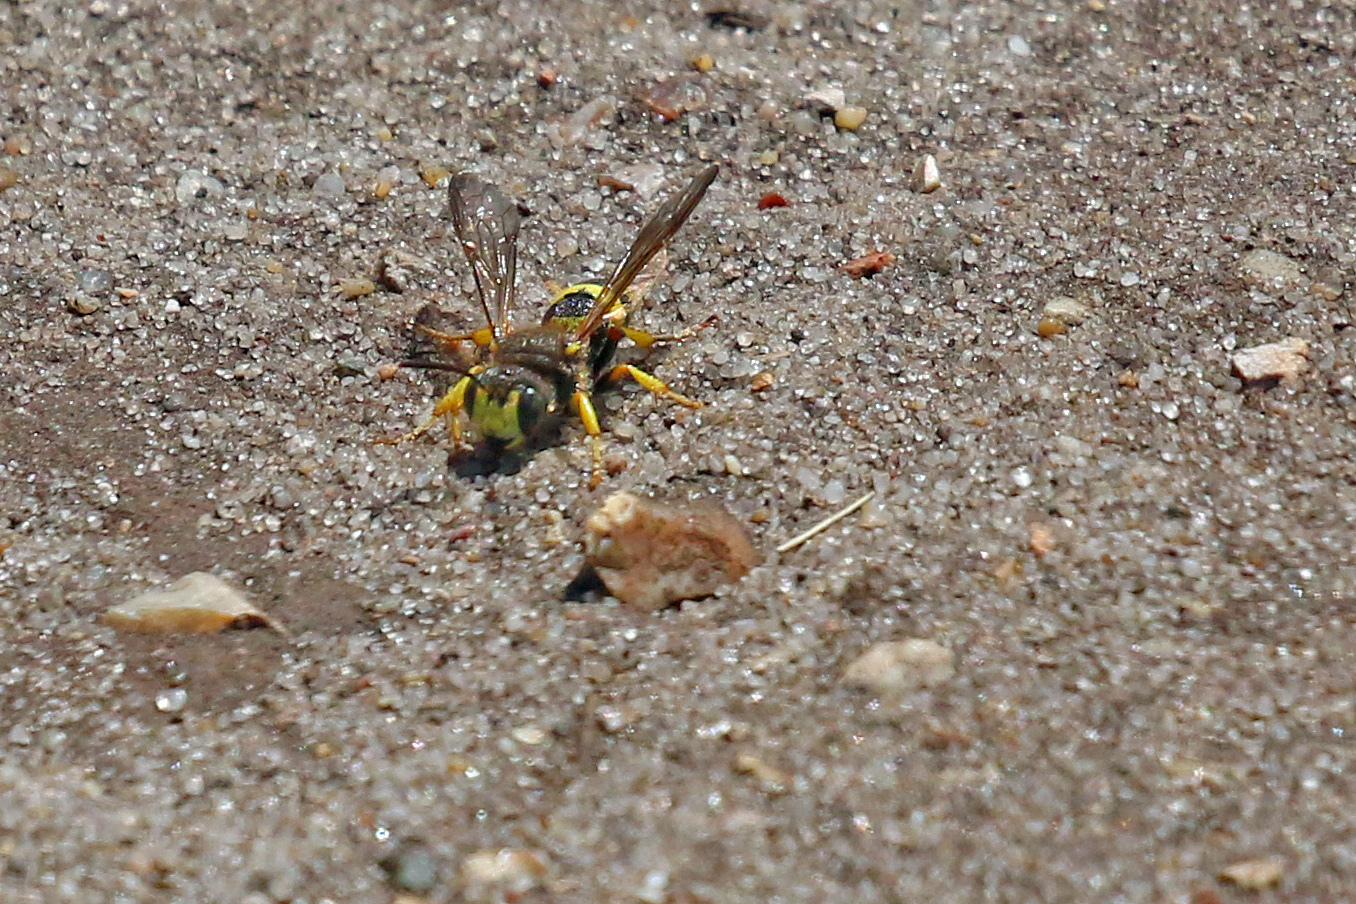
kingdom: Animalia
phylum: Arthropoda
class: Insecta
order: Hymenoptera
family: Crabronidae
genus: Cerceris
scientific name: Cerceris rybyensis
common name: Ornate tailed digger wasp
